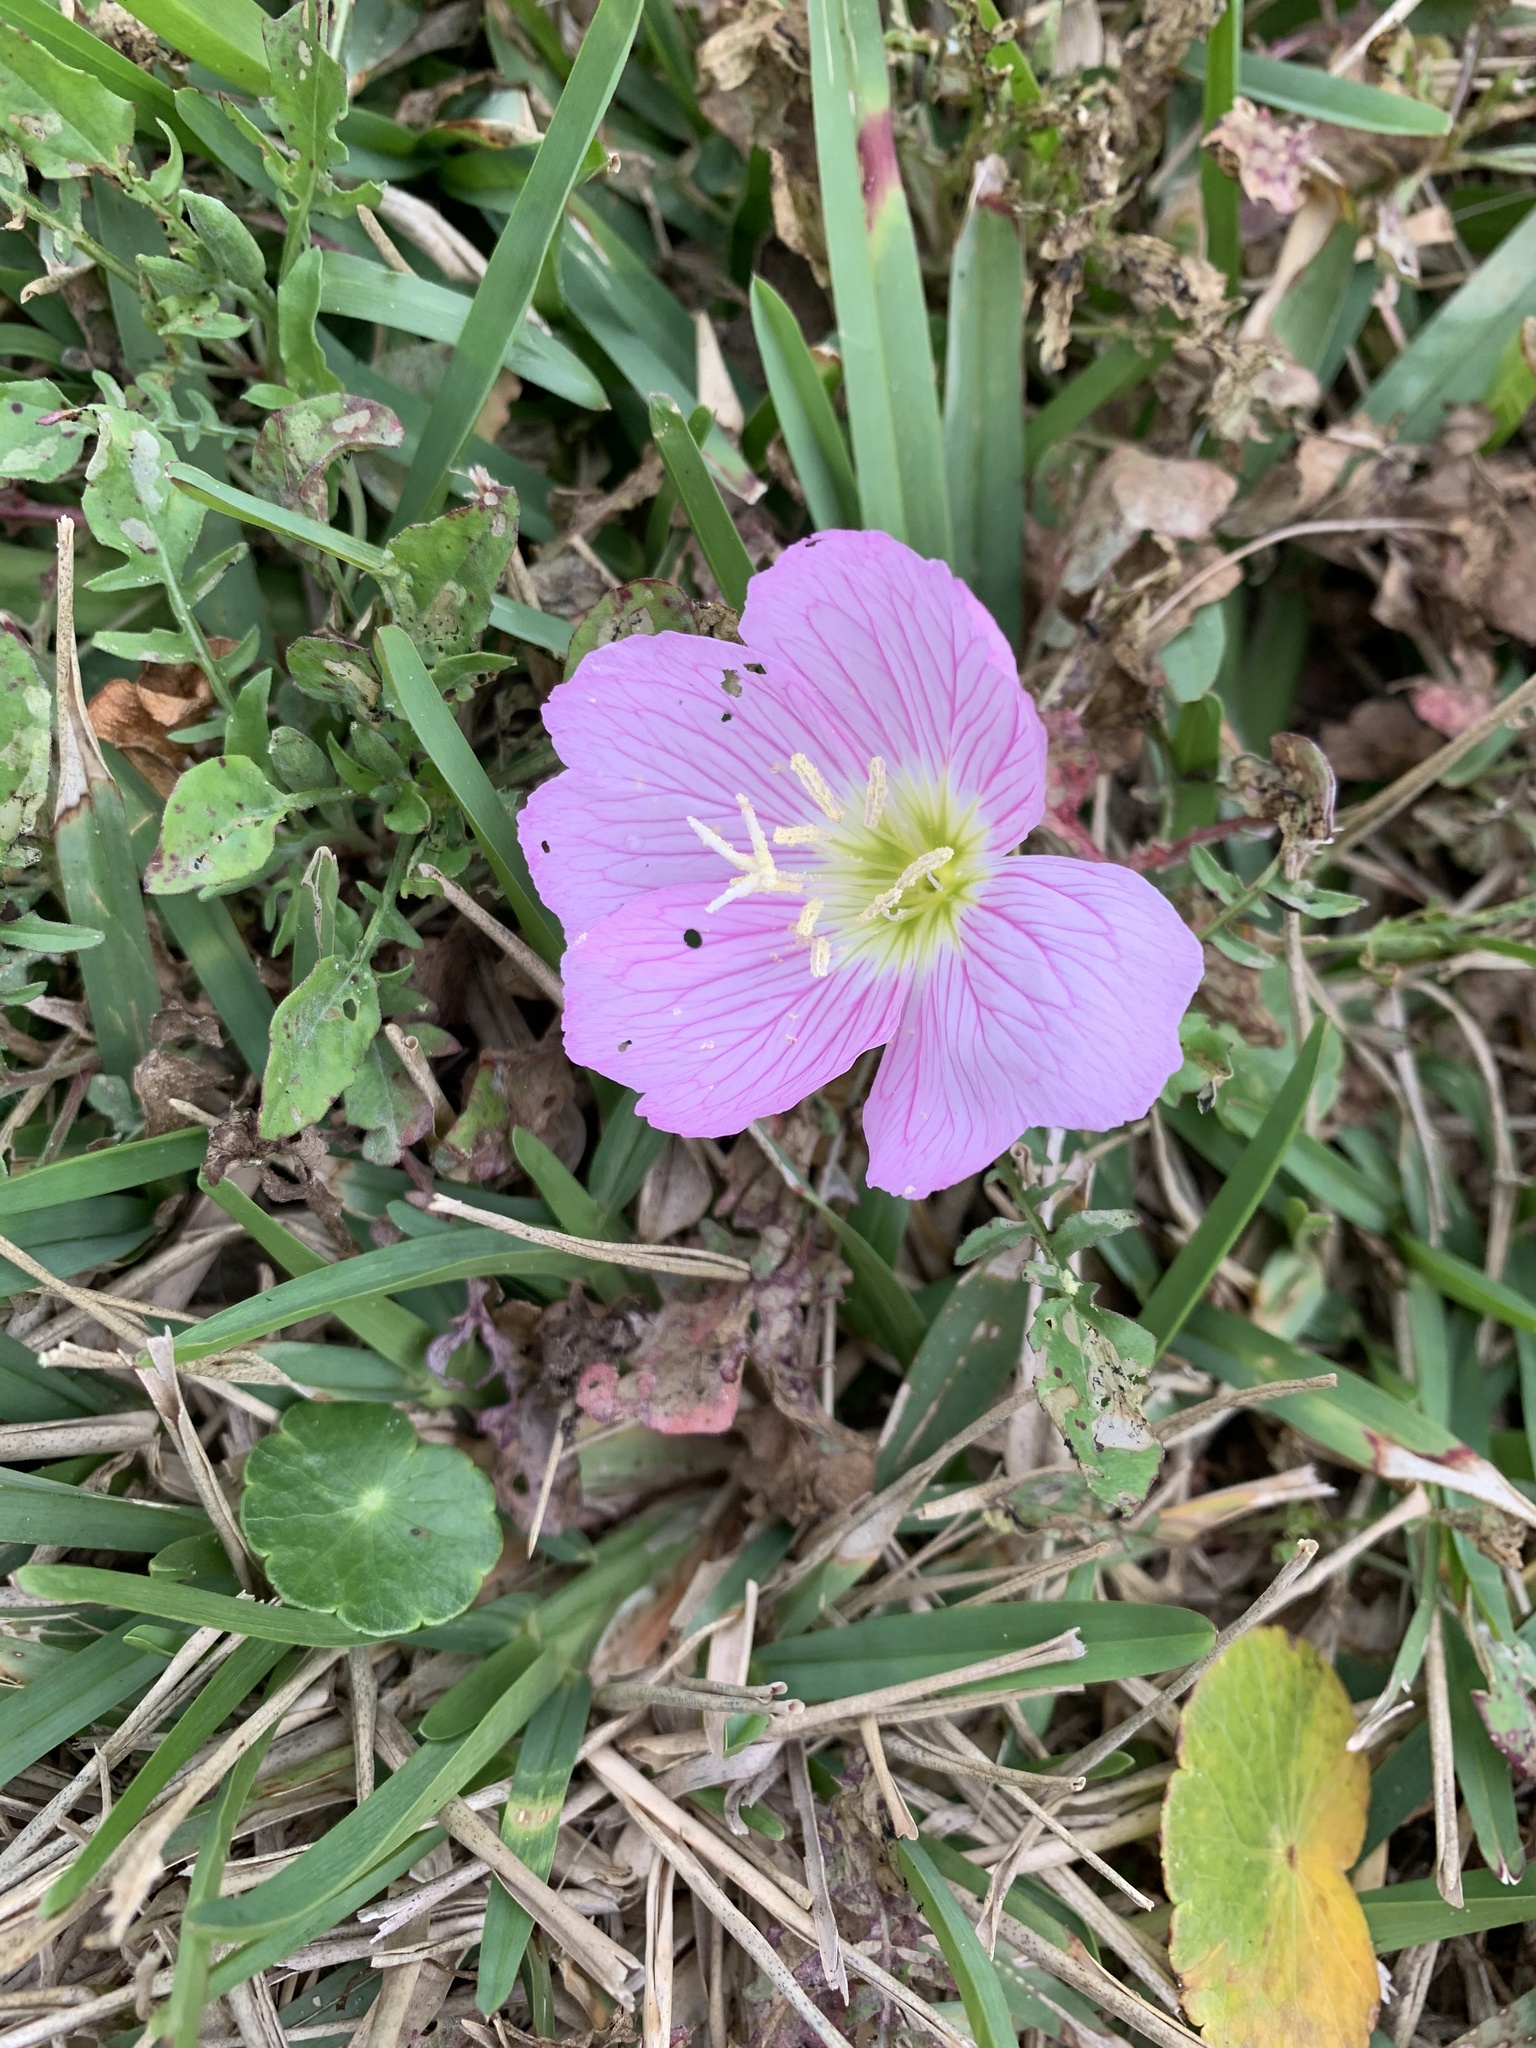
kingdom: Plantae
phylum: Tracheophyta
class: Magnoliopsida
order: Myrtales
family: Onagraceae
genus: Oenothera
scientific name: Oenothera speciosa
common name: White evening-primrose
